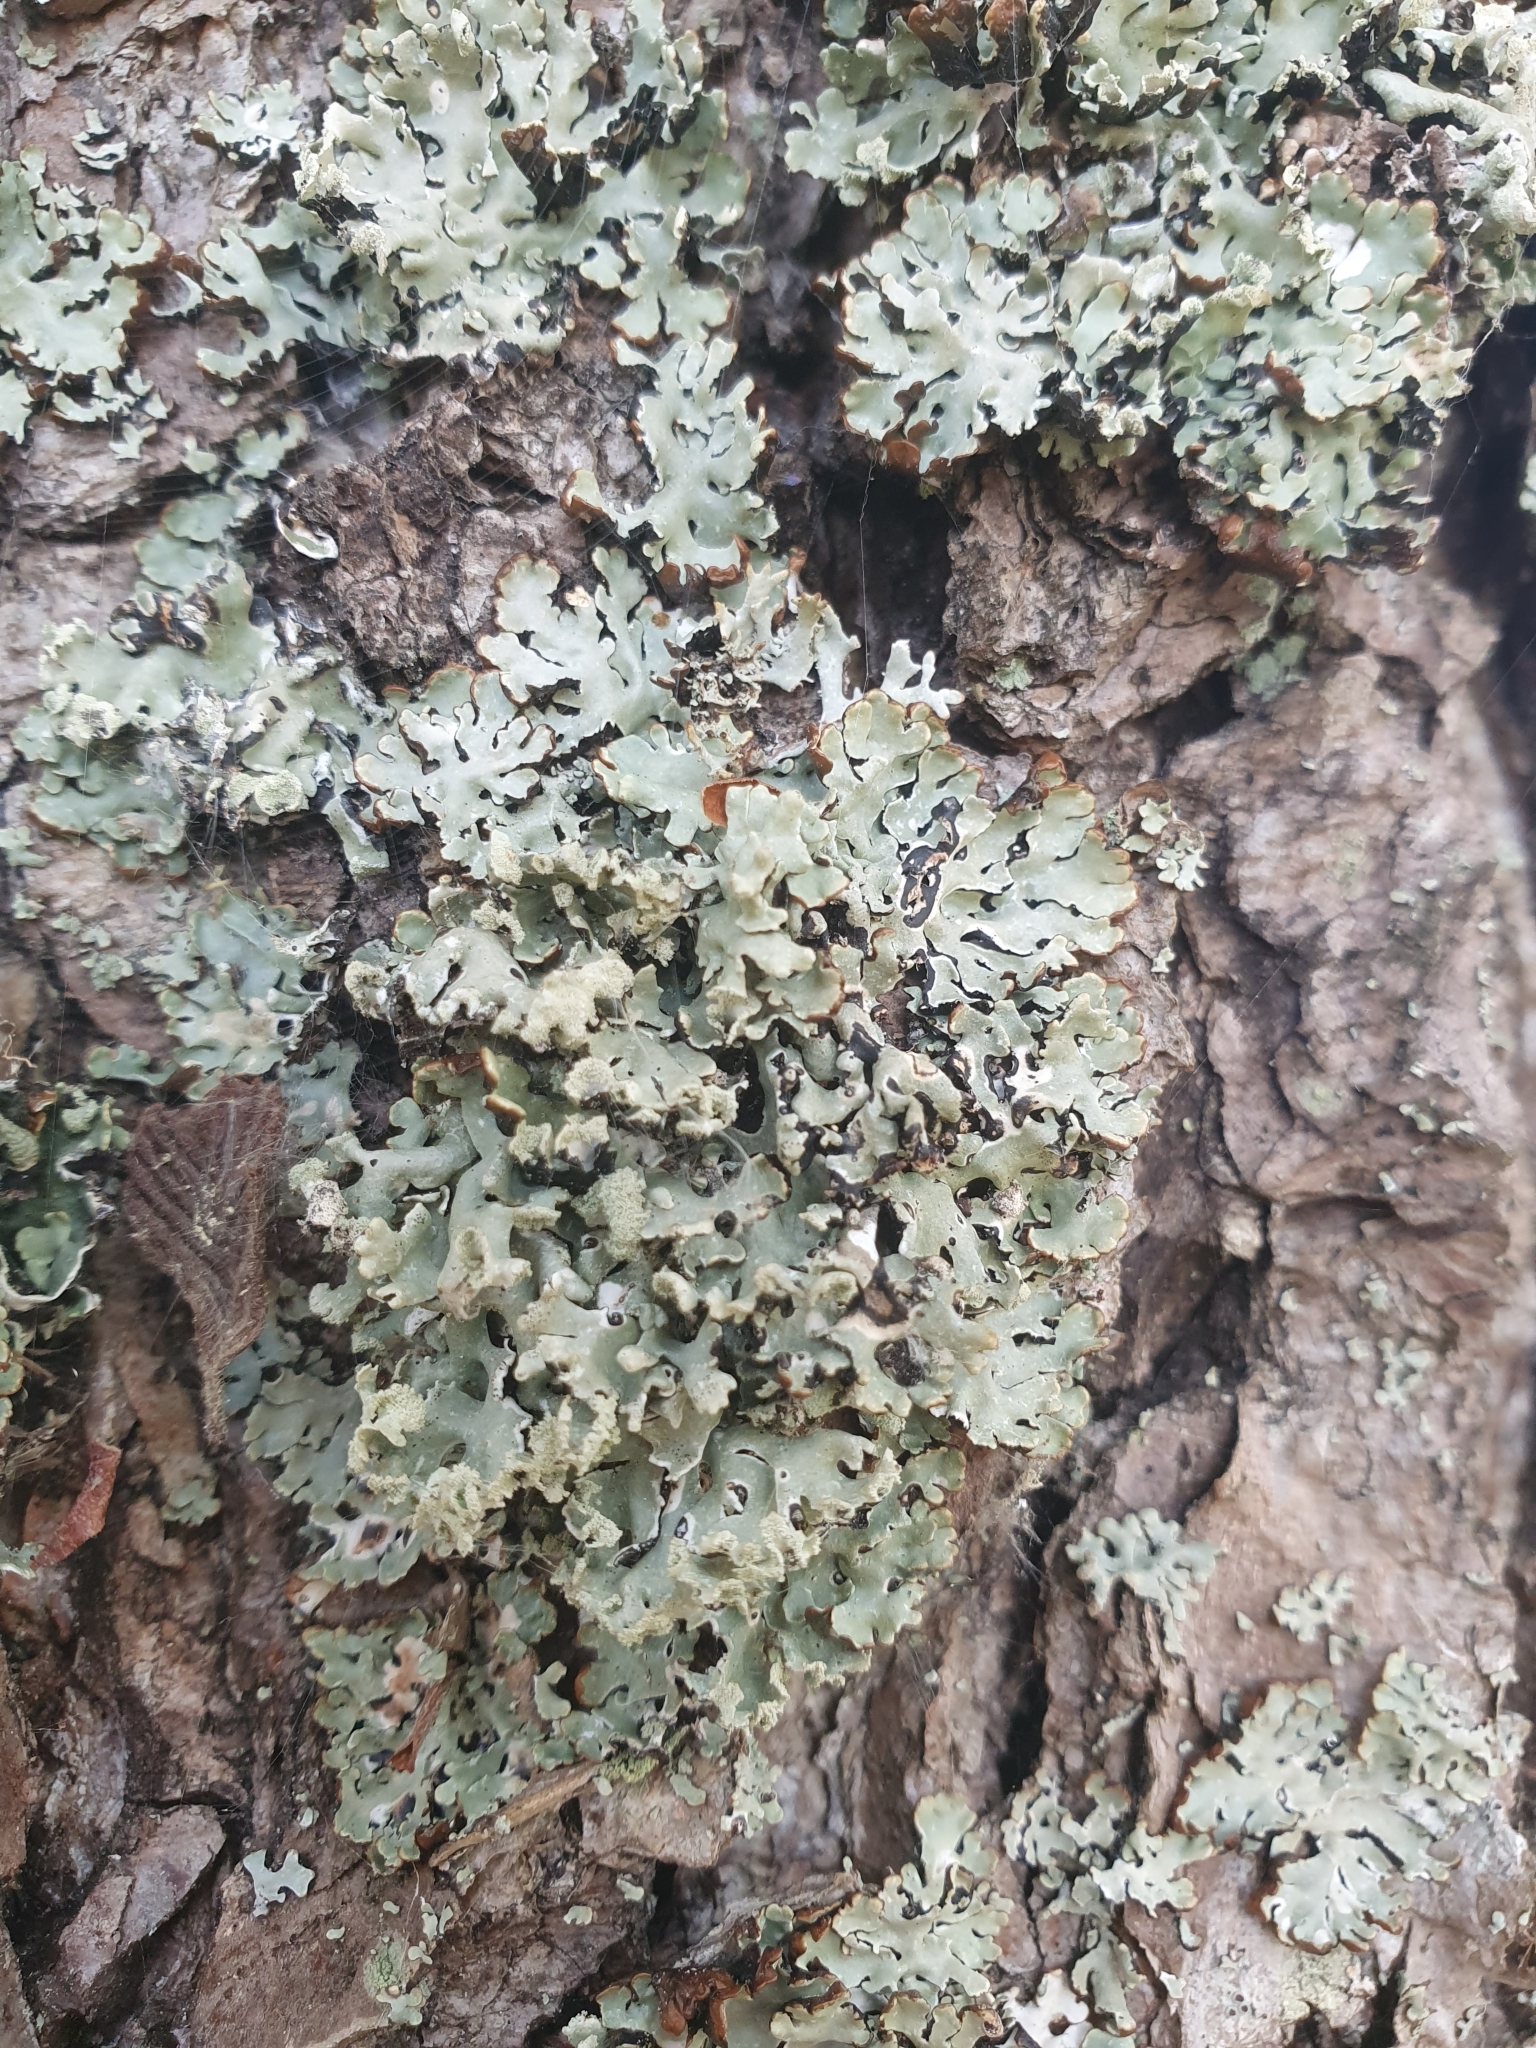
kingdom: Fungi
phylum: Ascomycota
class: Lecanoromycetes
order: Lecanorales
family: Parmeliaceae
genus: Hypogymnia
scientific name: Hypogymnia physodes
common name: Dark crottle
